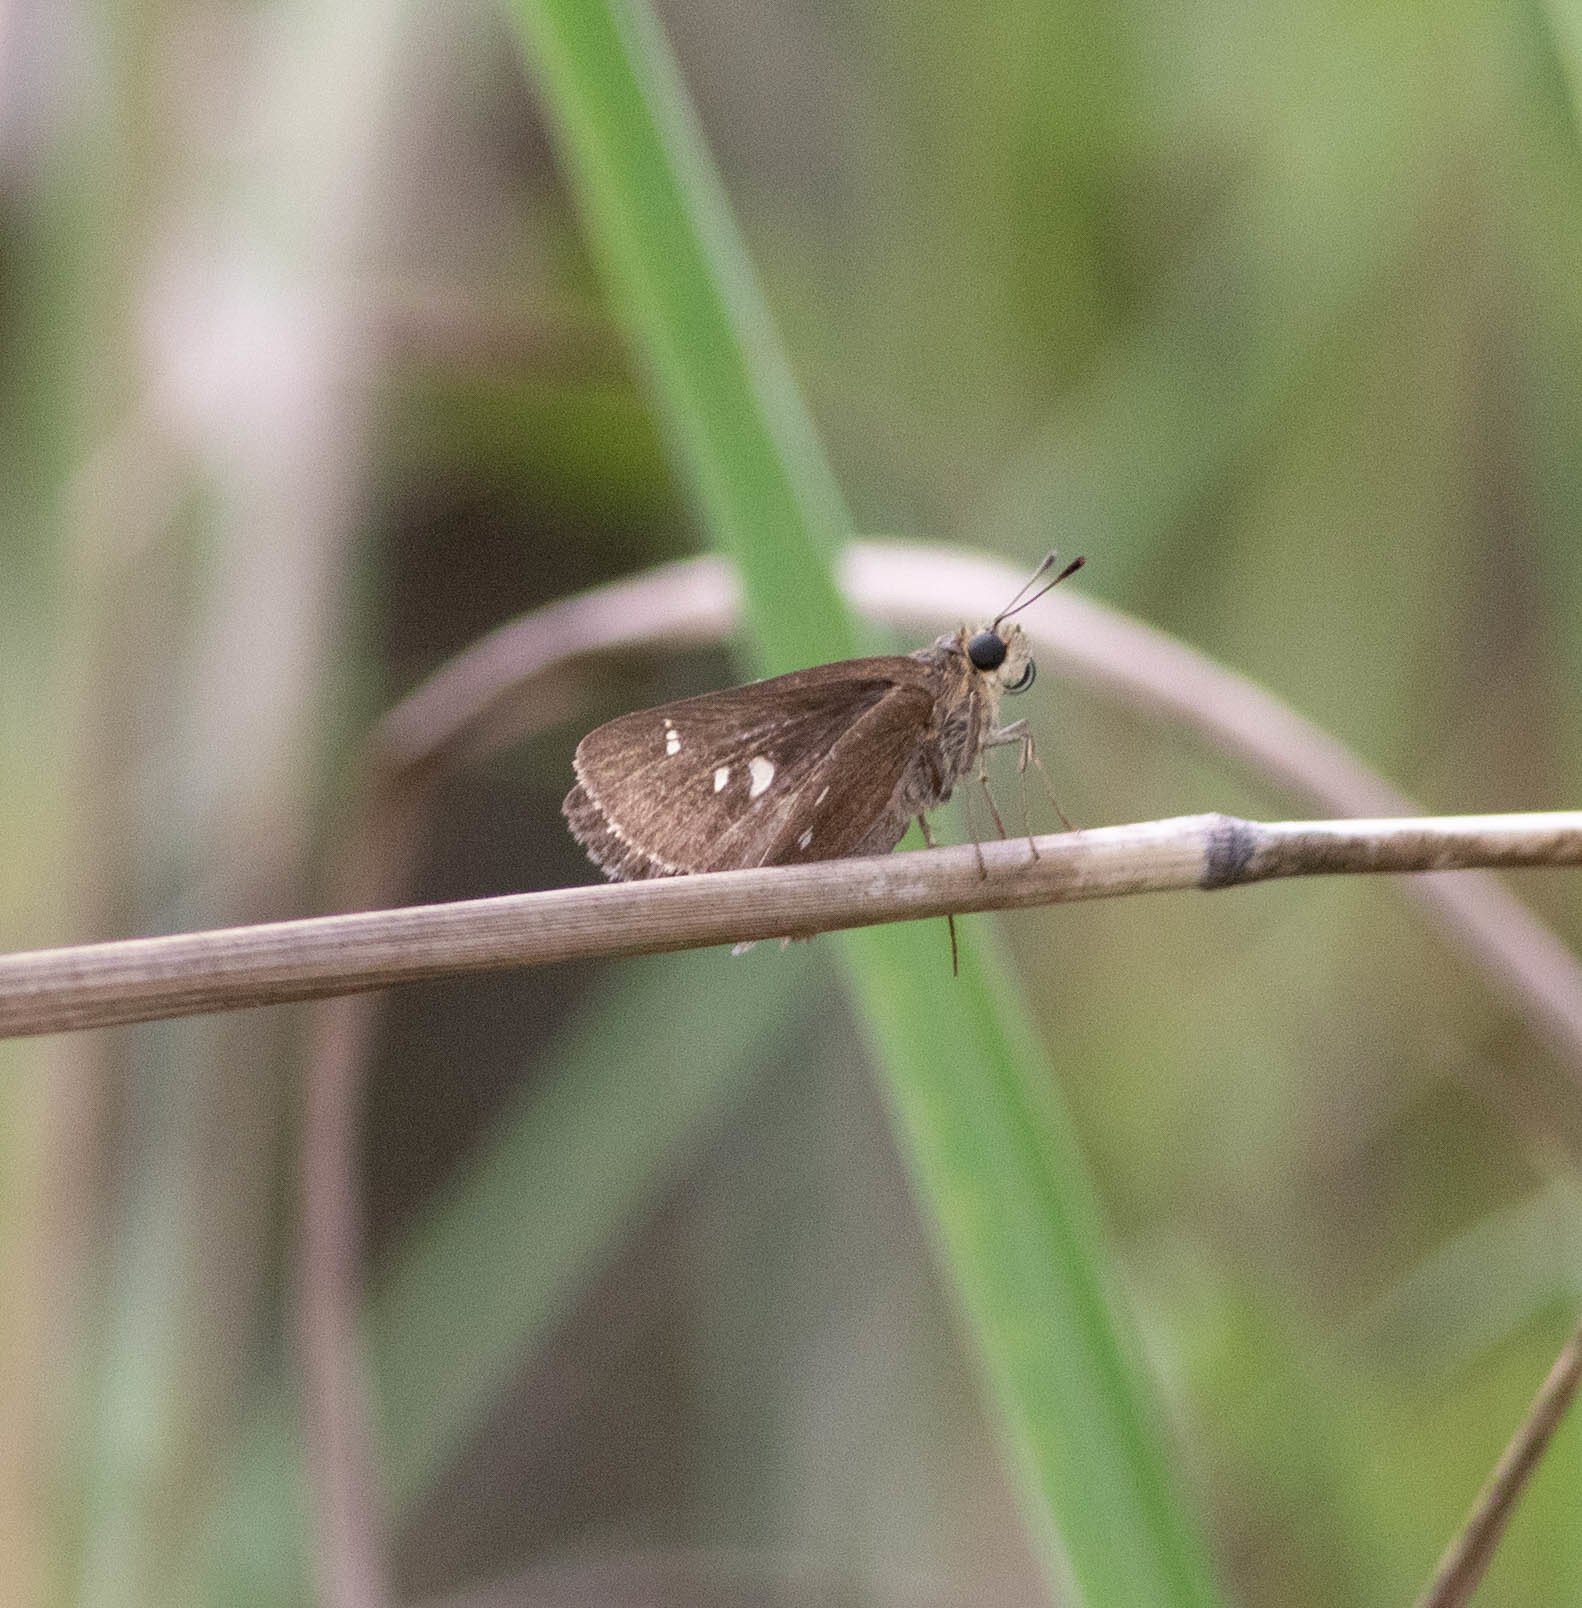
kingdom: Animalia
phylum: Arthropoda
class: Insecta
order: Lepidoptera
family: Hesperiidae
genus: Oligoria
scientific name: Oligoria maculata
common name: Twin-spot skipper
